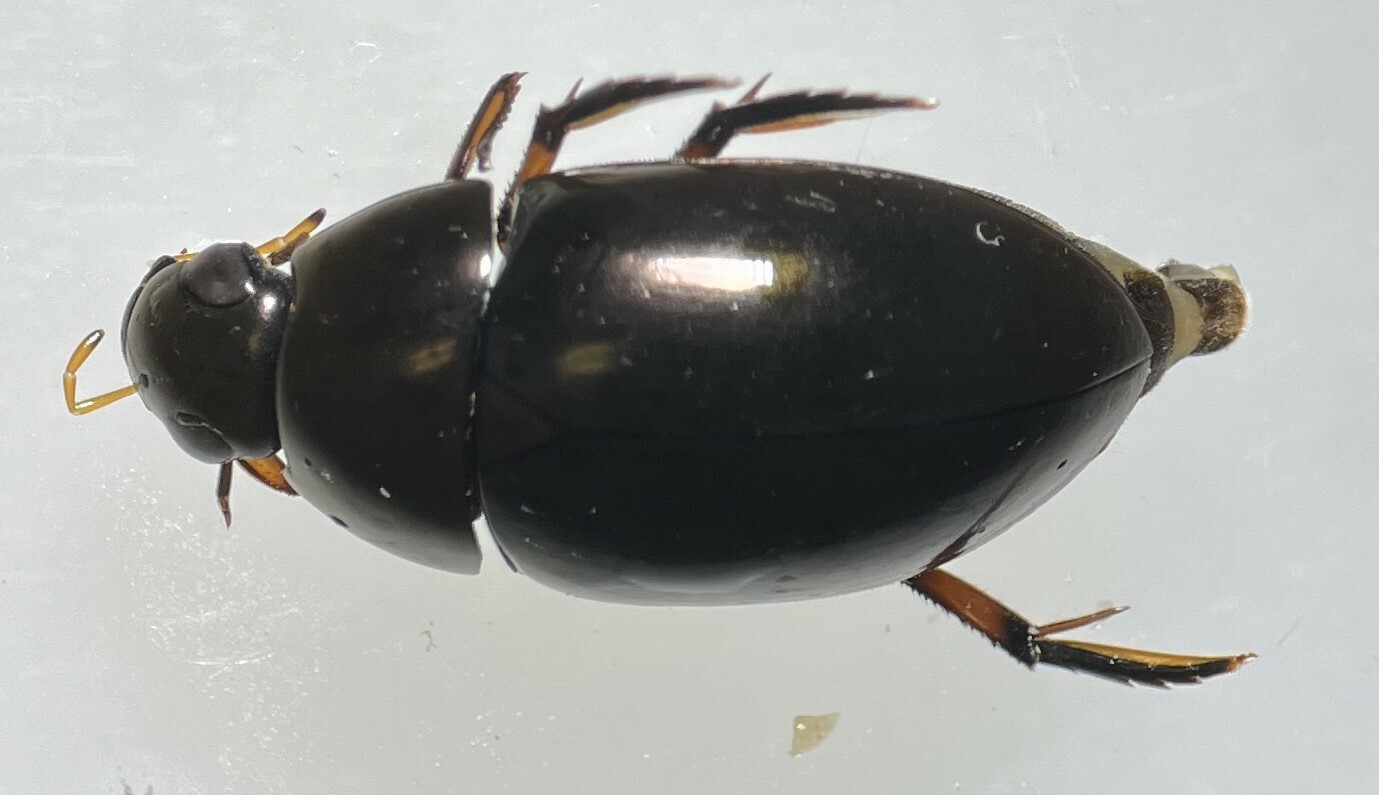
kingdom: Animalia
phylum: Arthropoda
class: Insecta
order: Coleoptera
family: Hydrophilidae
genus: Tropisternus
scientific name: Tropisternus blatchleyi
